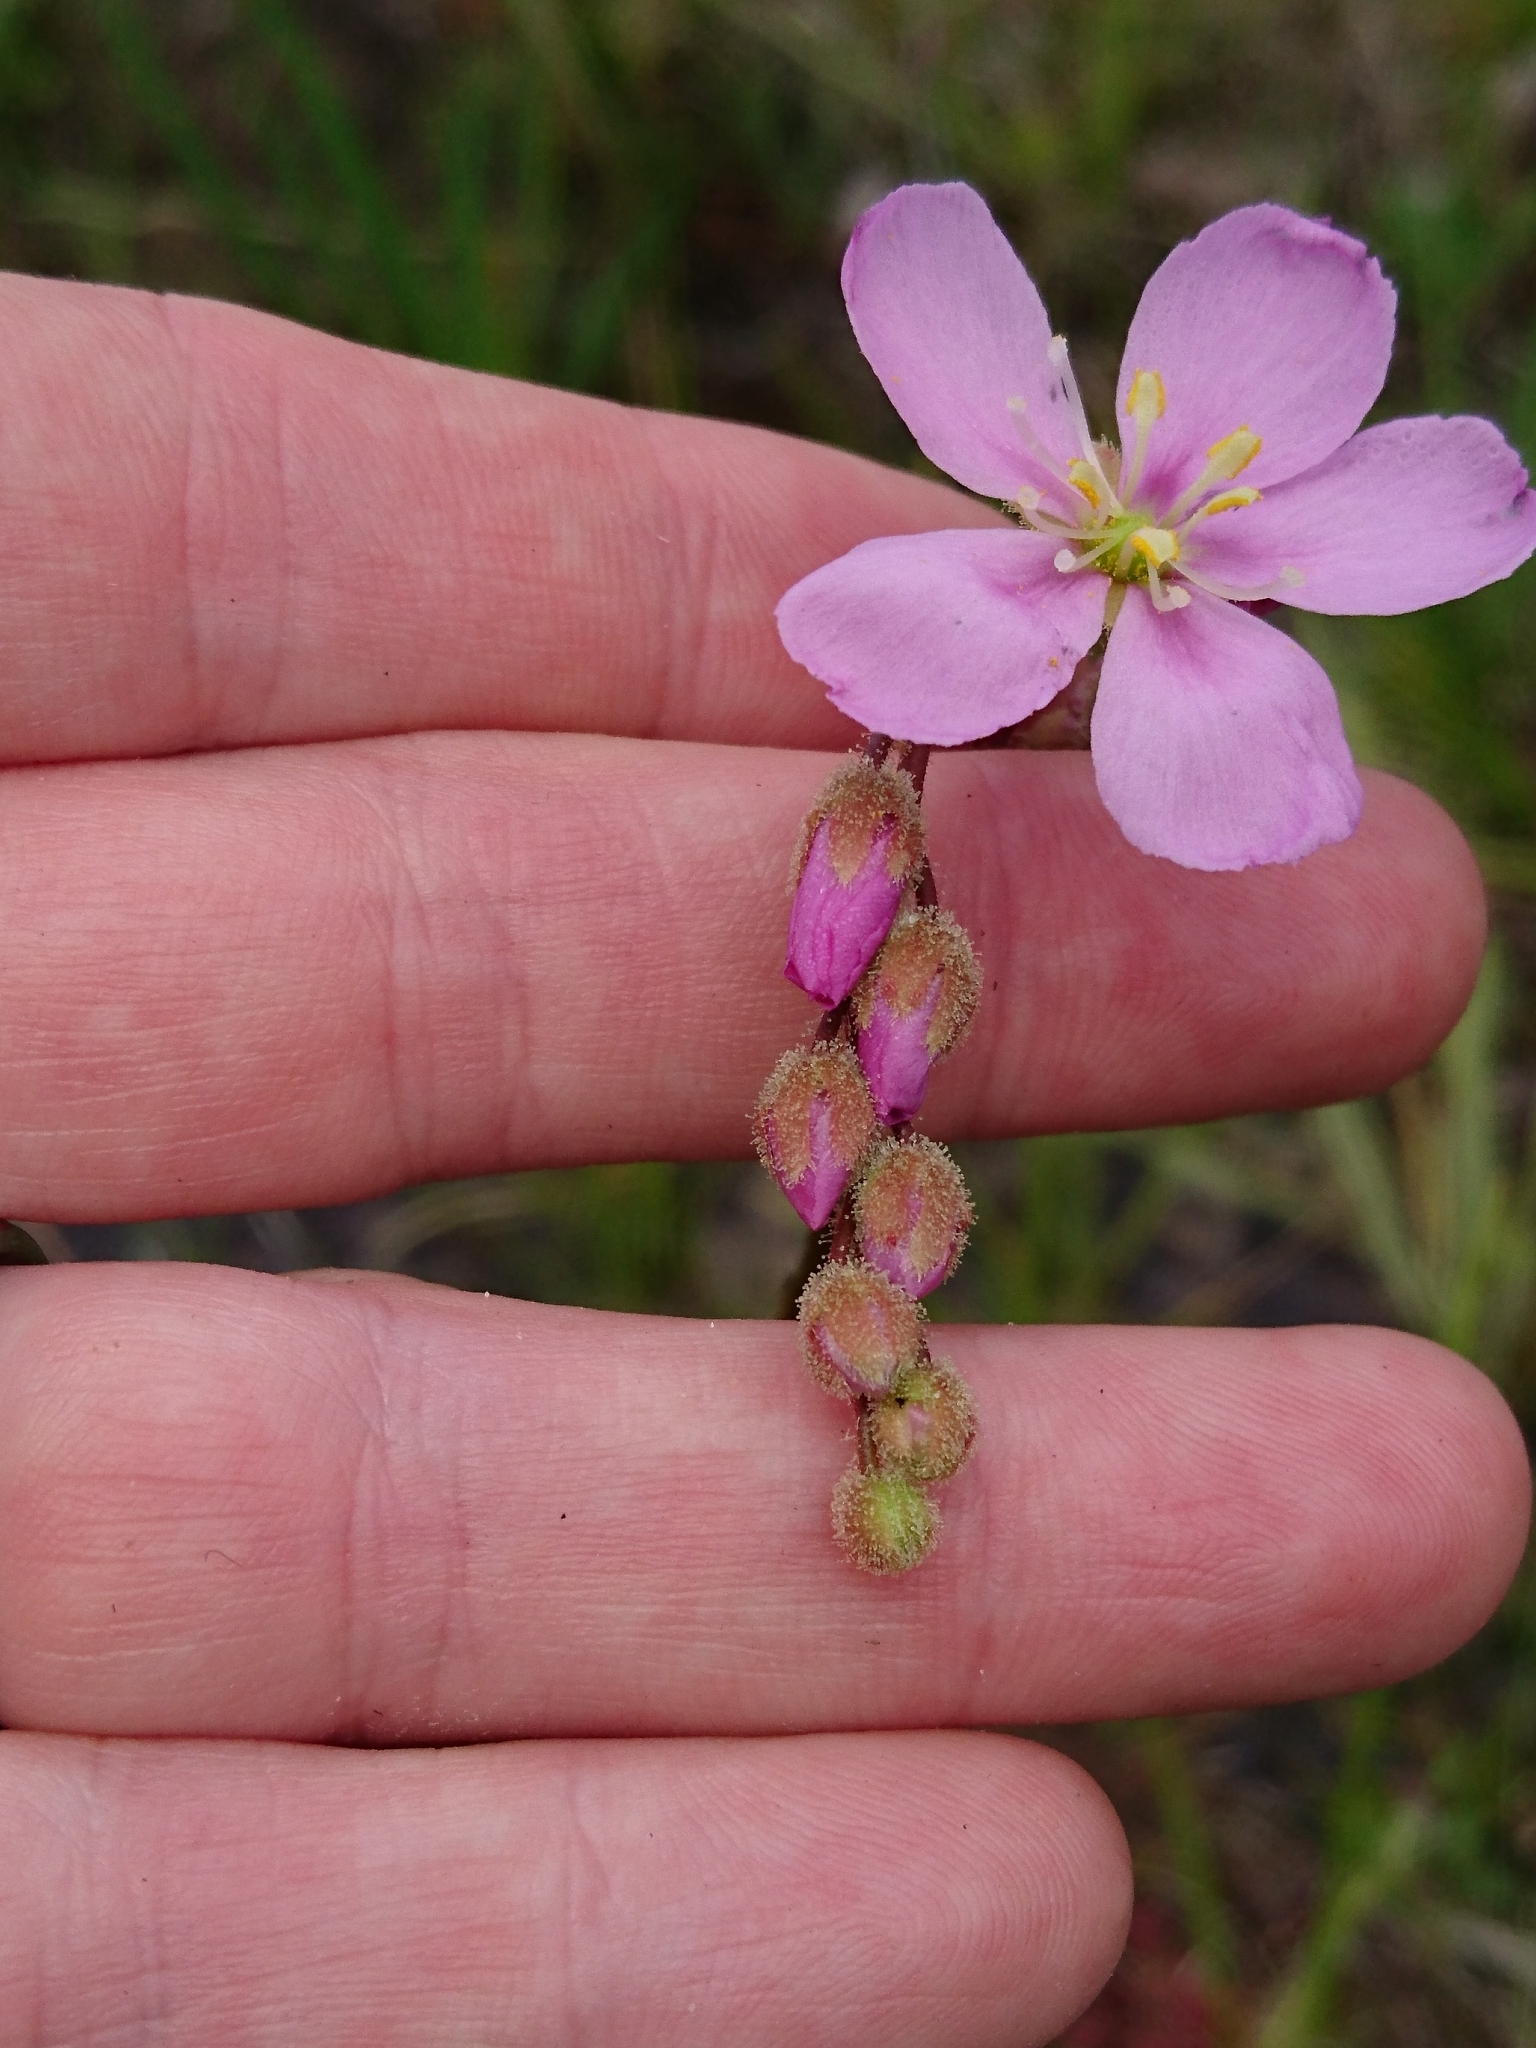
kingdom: Plantae
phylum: Tracheophyta
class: Magnoliopsida
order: Caryophyllales
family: Droseraceae
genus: Drosera
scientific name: Drosera filiformis
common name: Dew-thread
